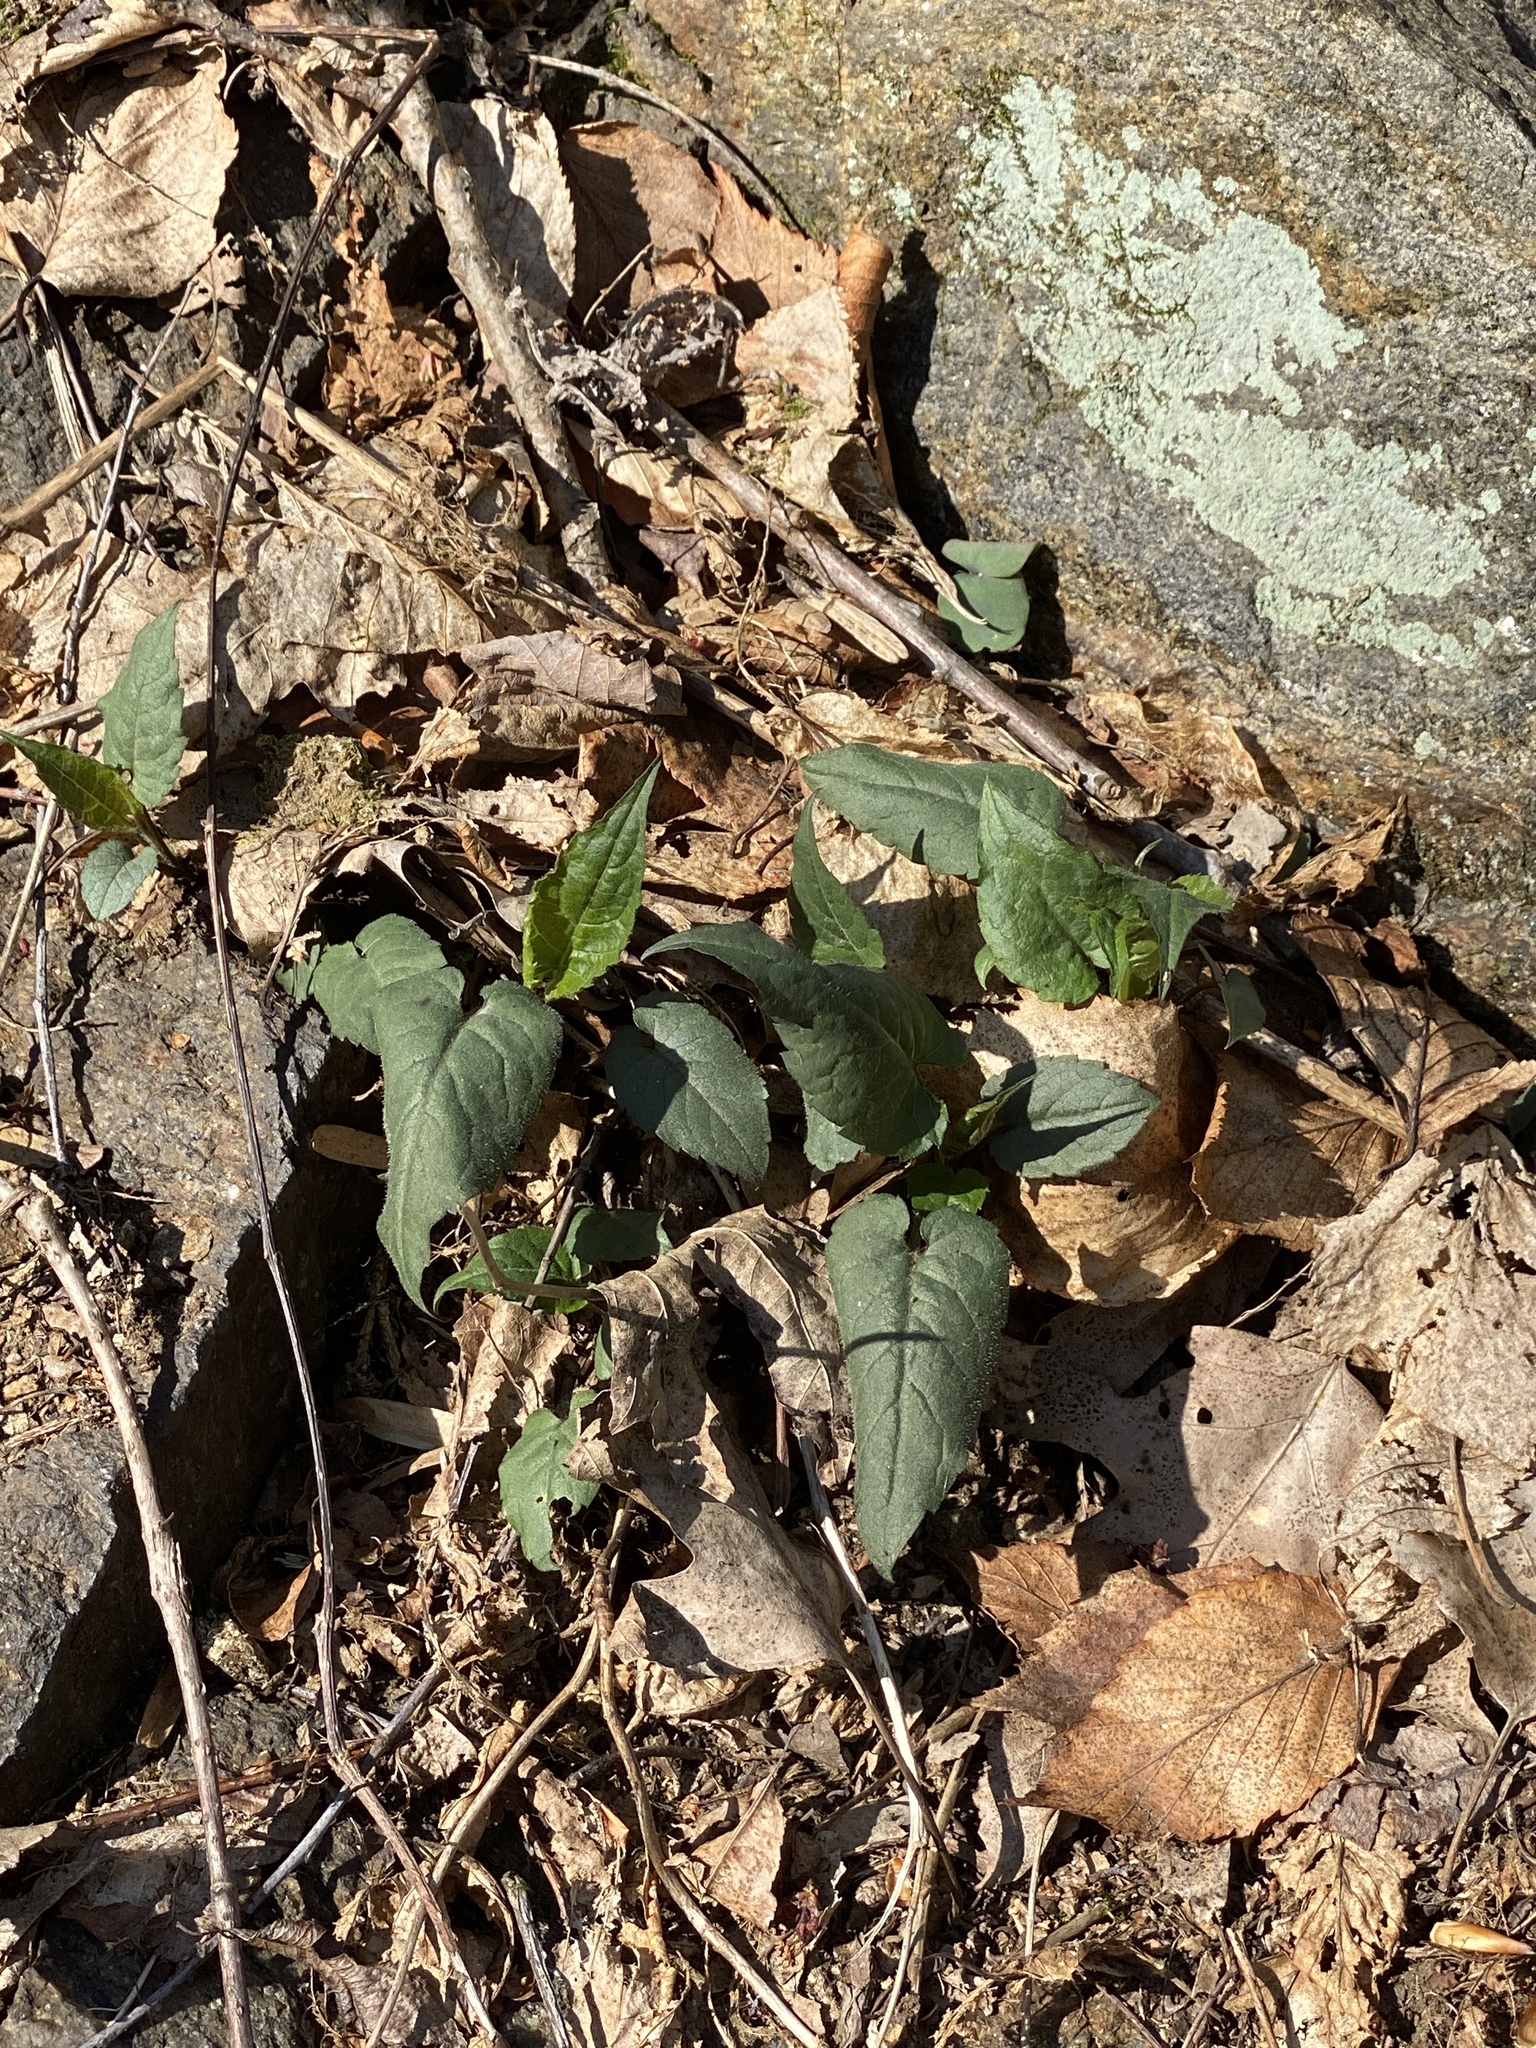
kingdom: Plantae
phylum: Tracheophyta
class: Magnoliopsida
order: Asterales
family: Asteraceae
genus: Eurybia
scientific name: Eurybia divaricata
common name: White wood aster
